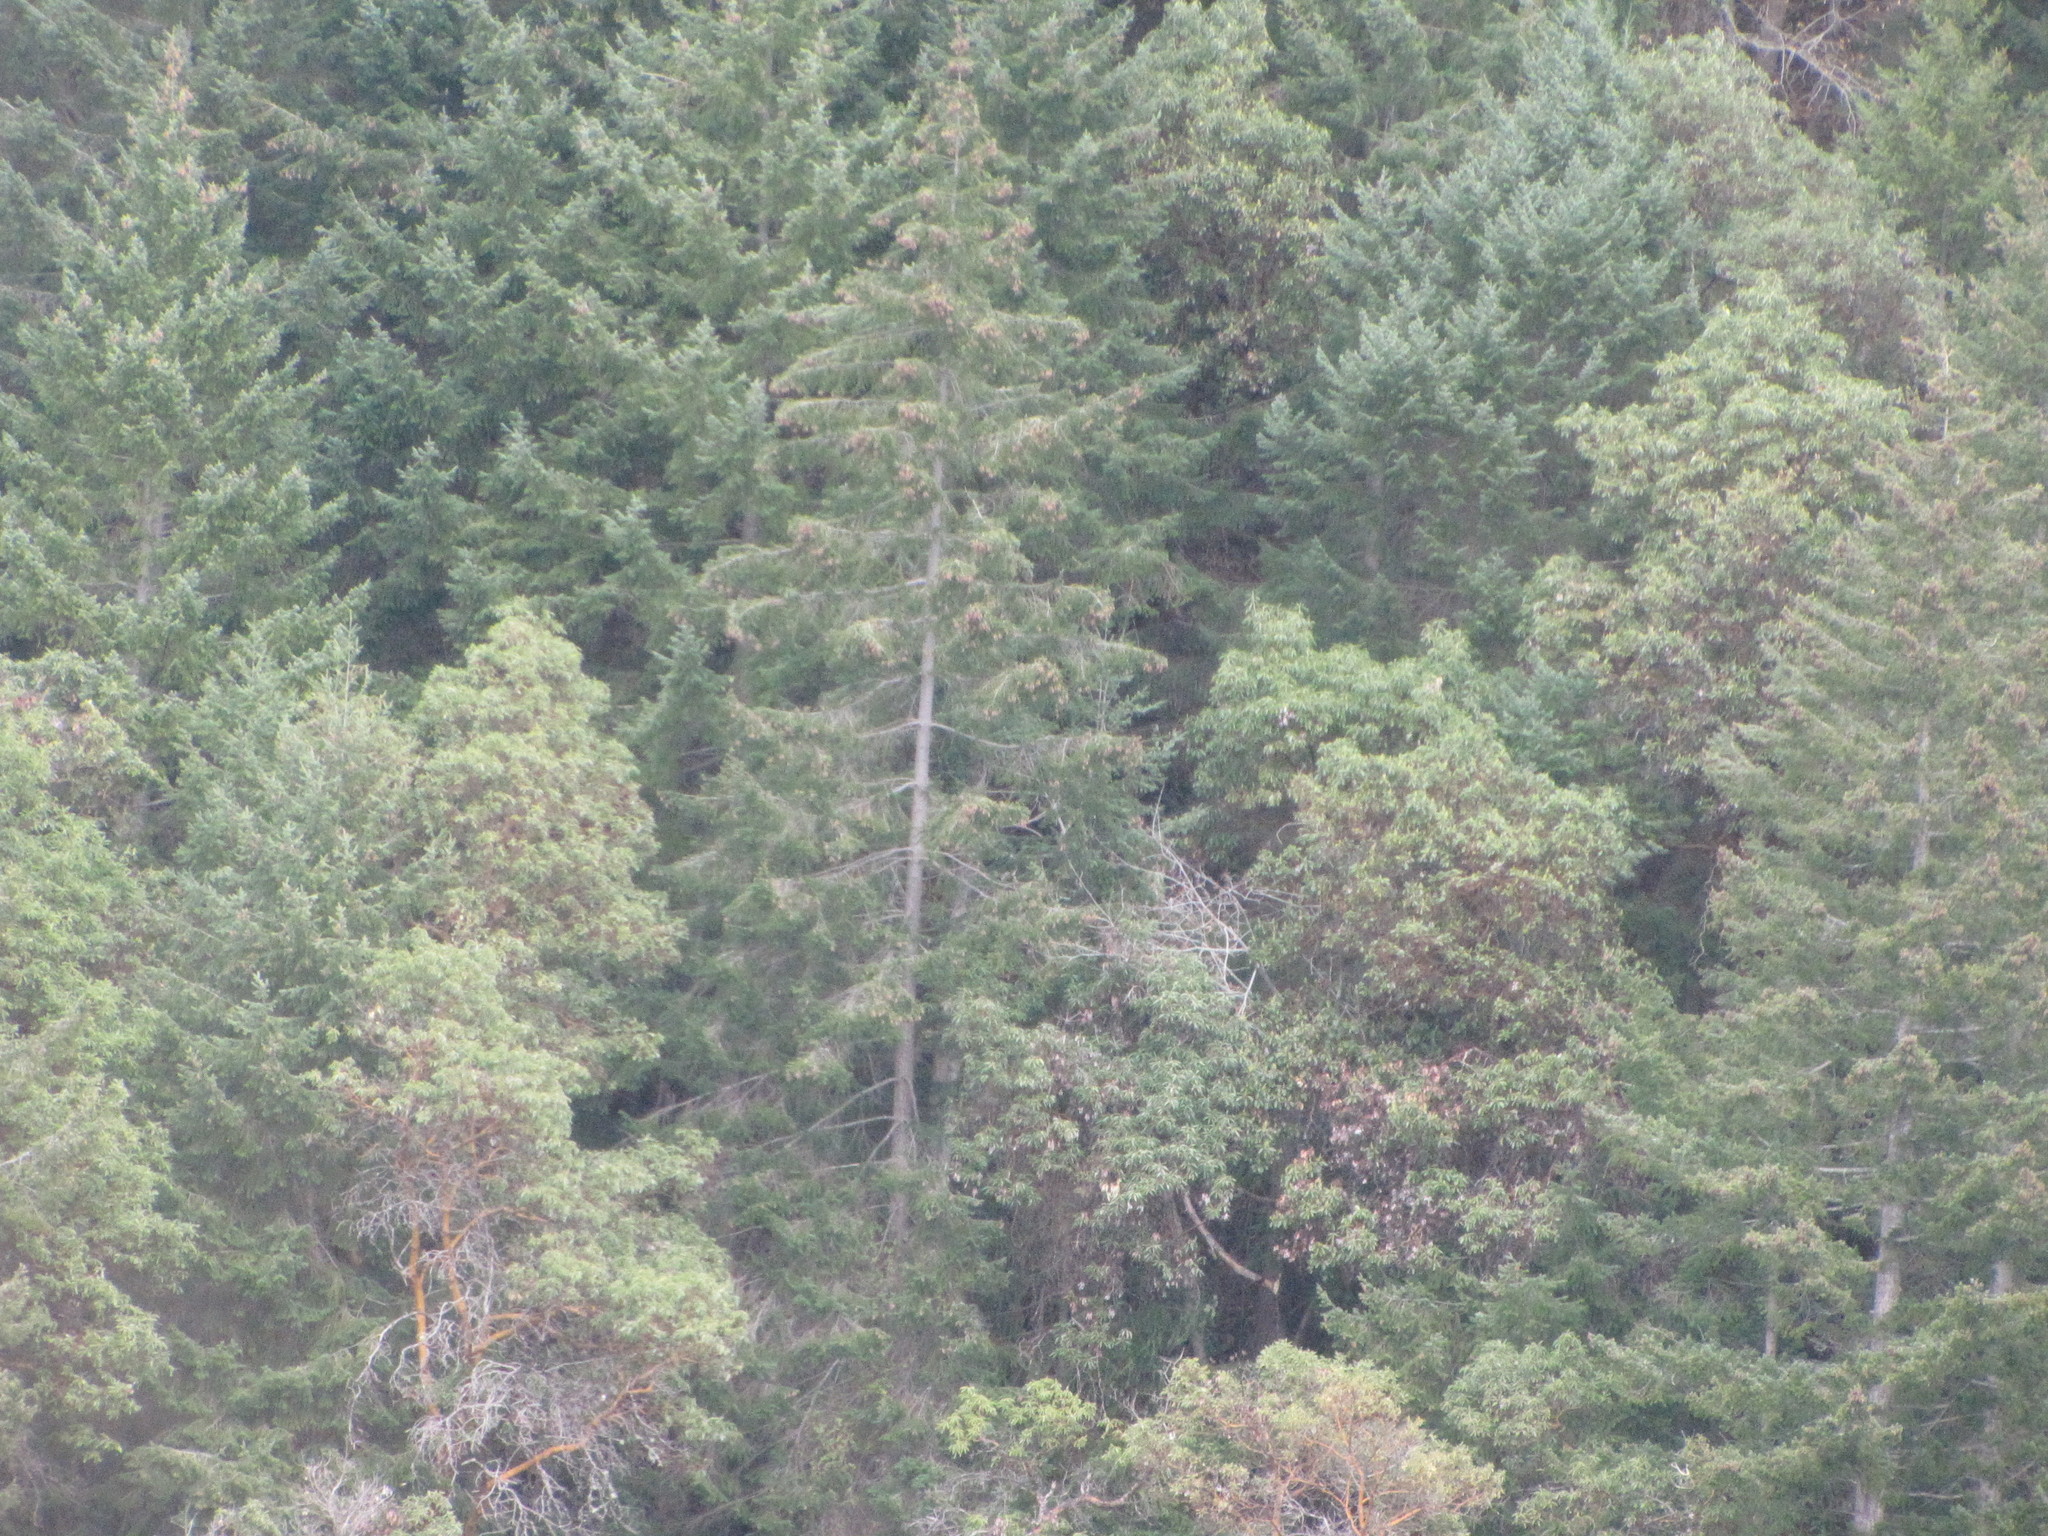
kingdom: Plantae
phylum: Tracheophyta
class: Magnoliopsida
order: Ericales
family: Ericaceae
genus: Arbutus
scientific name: Arbutus menziesii
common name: Pacific madrone
